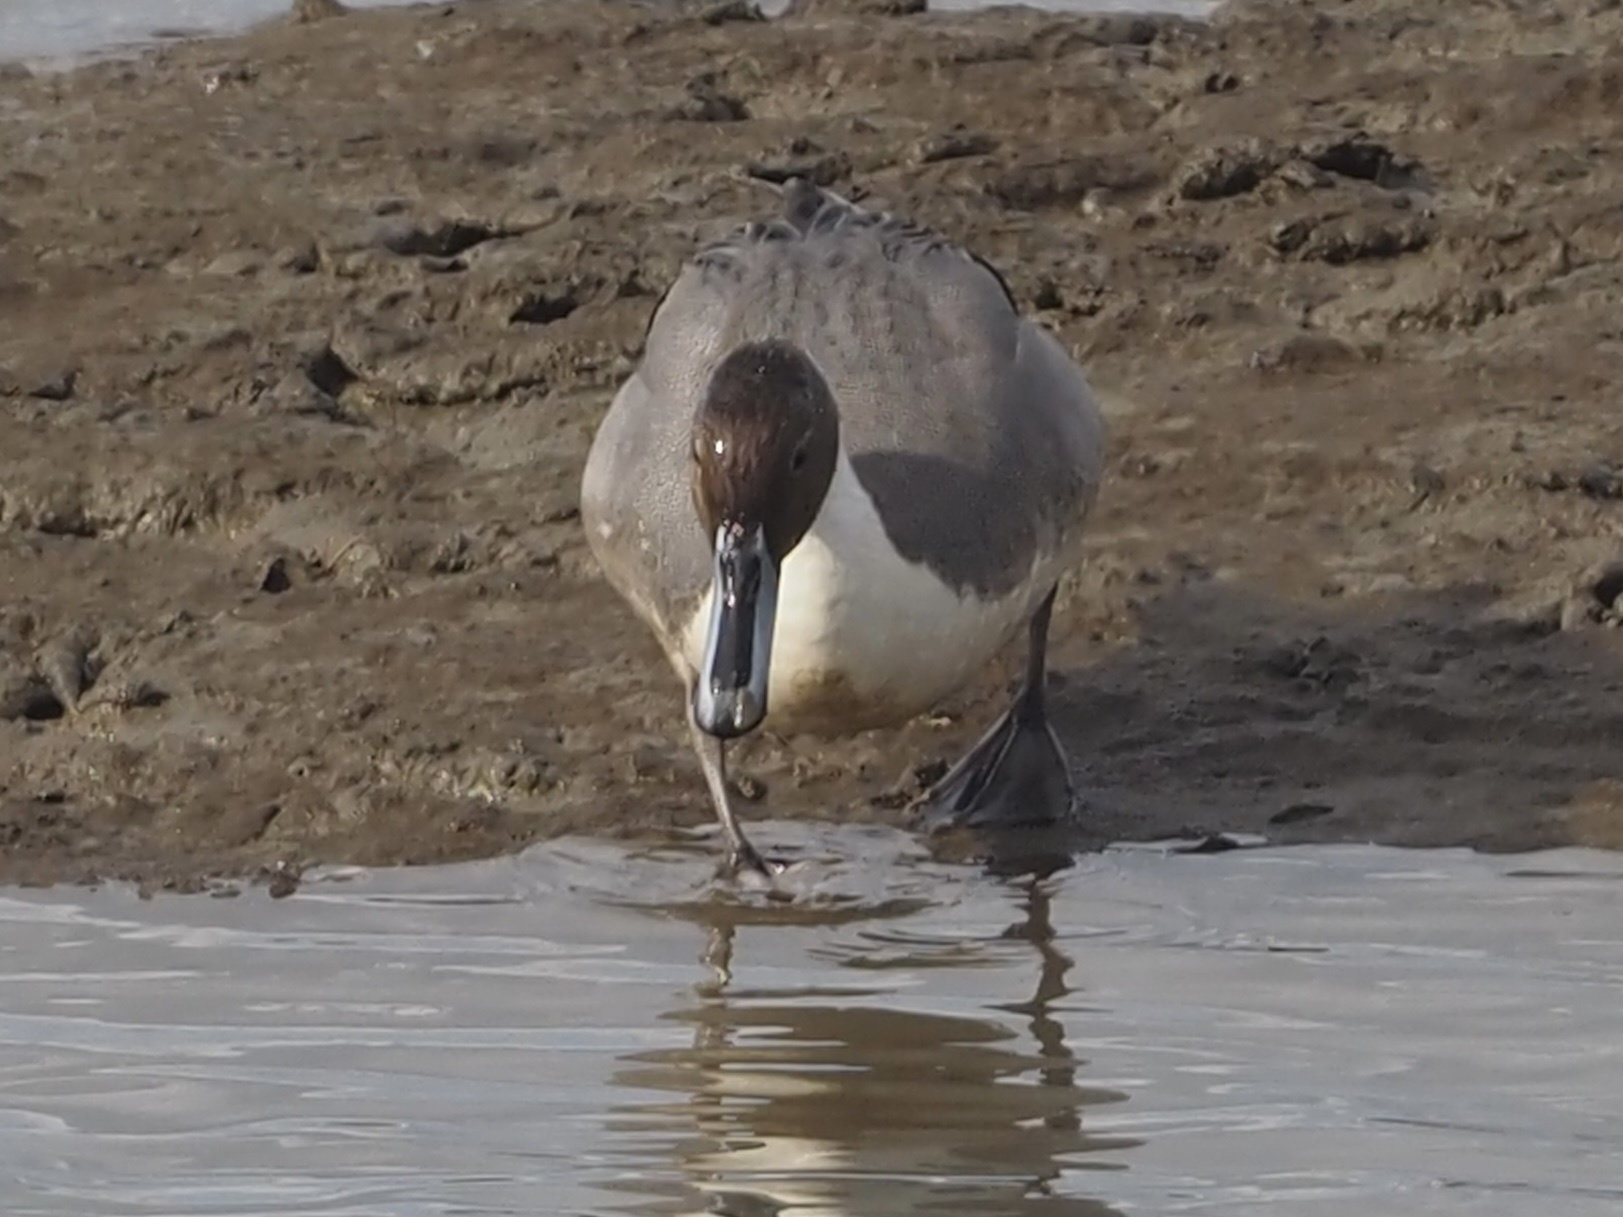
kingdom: Animalia
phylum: Chordata
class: Aves
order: Anseriformes
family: Anatidae
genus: Anas
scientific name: Anas acuta
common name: Northern pintail
